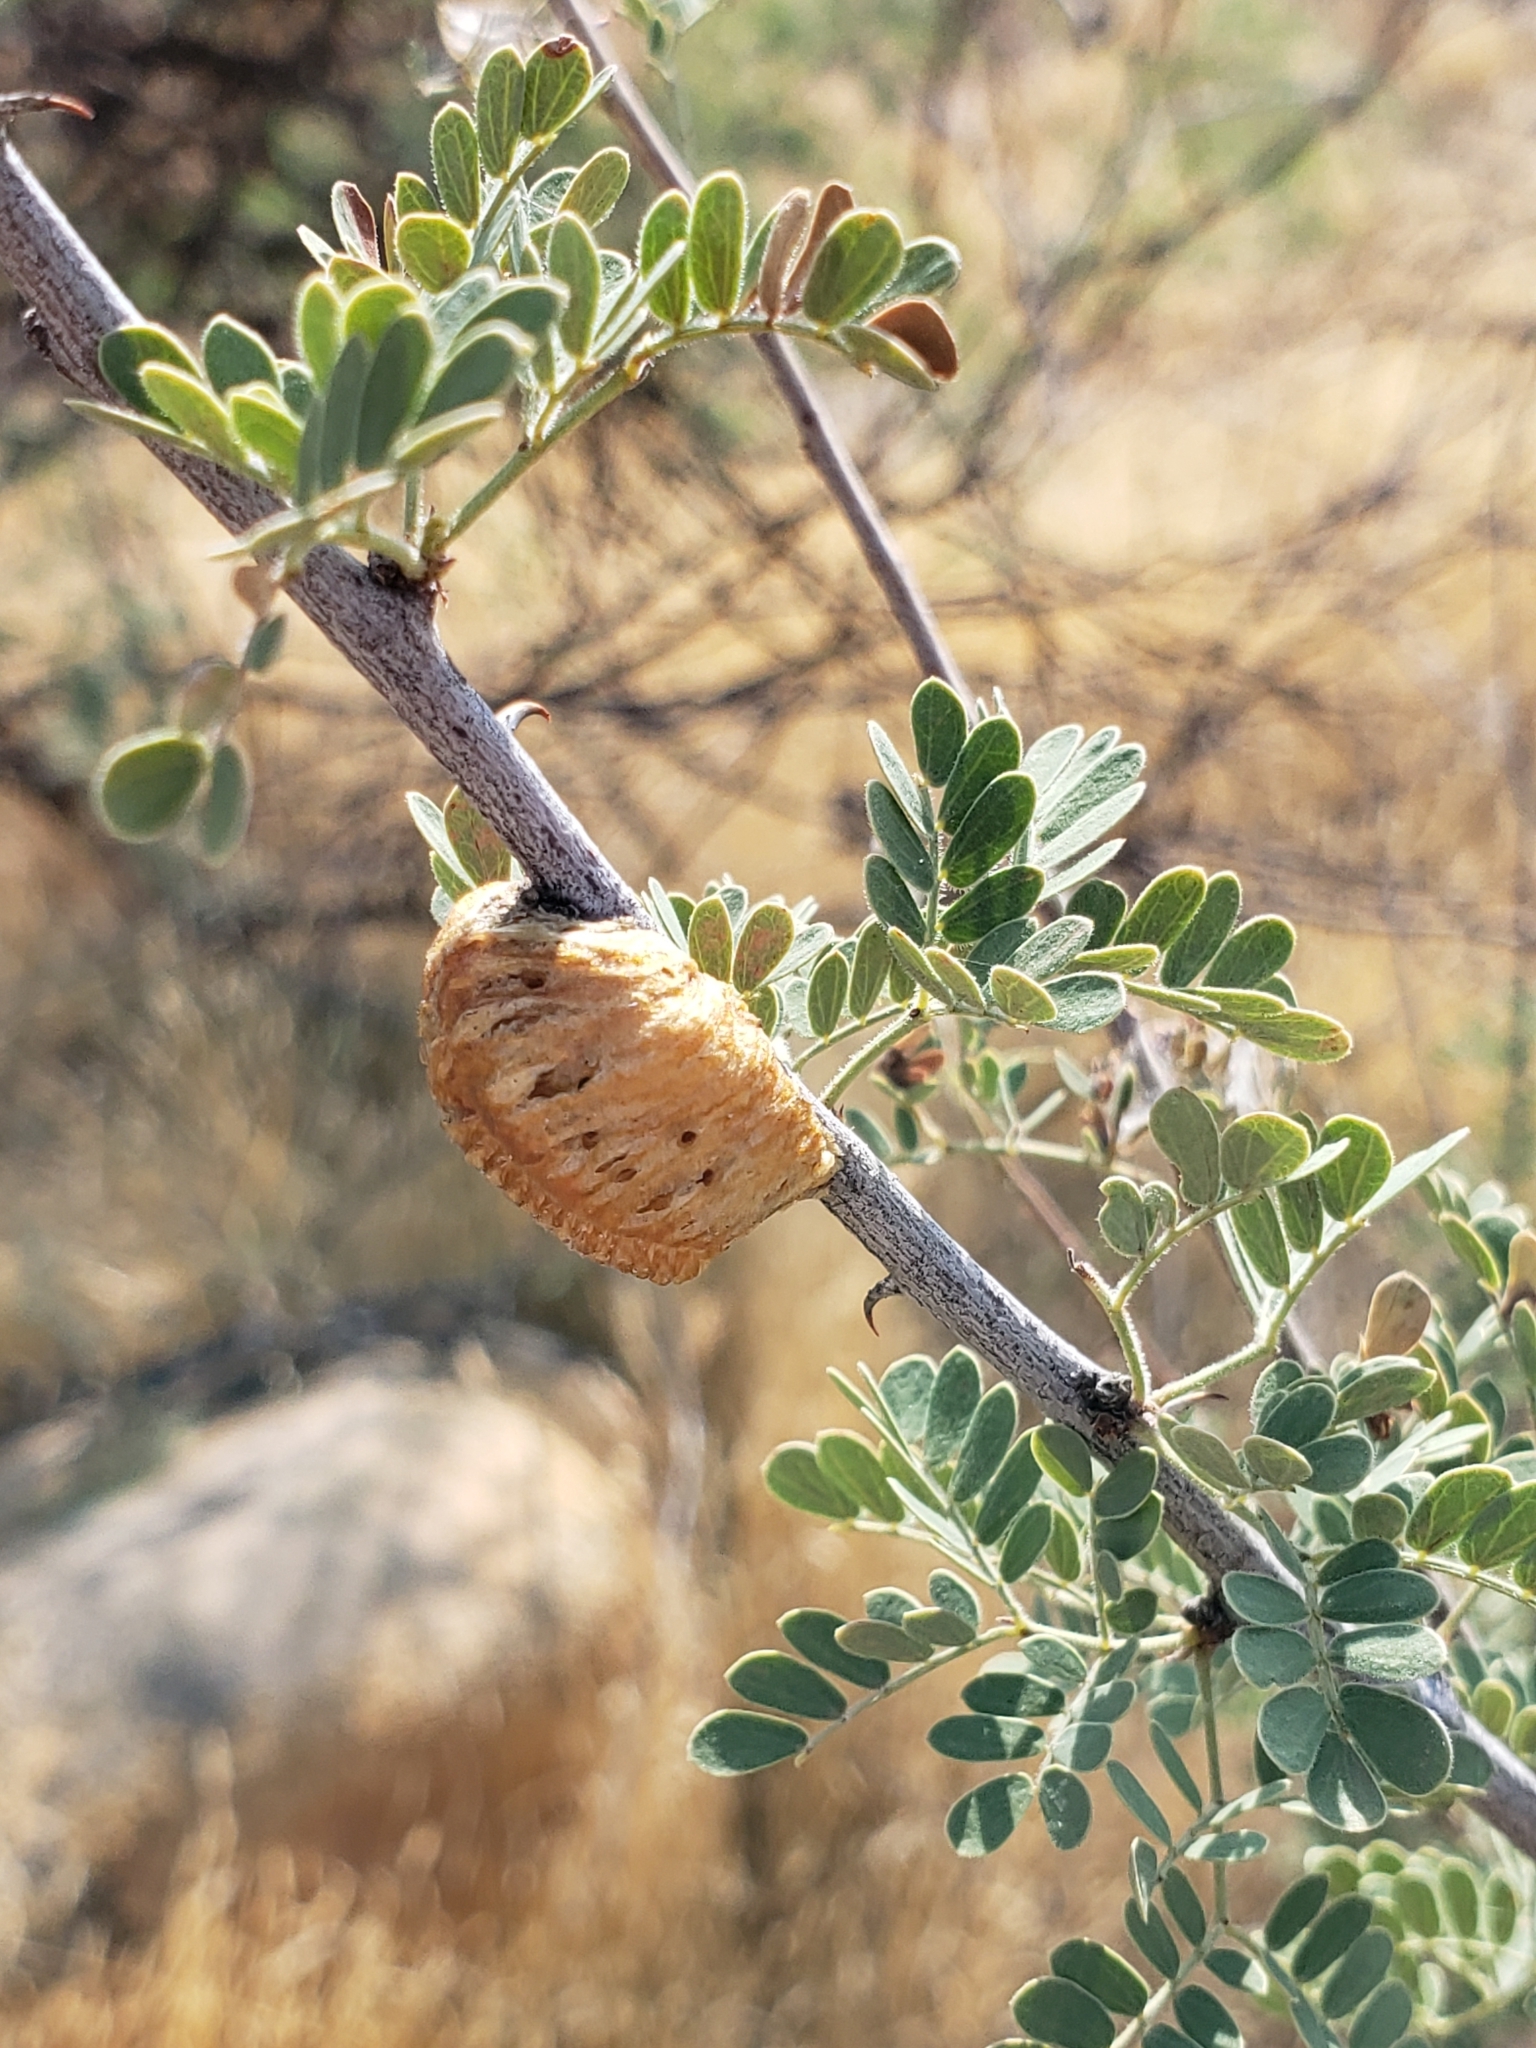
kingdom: Plantae
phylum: Tracheophyta
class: Magnoliopsida
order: Fabales
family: Fabaceae
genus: Senegalia
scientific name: Senegalia greggii
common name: Texas-mimosa
